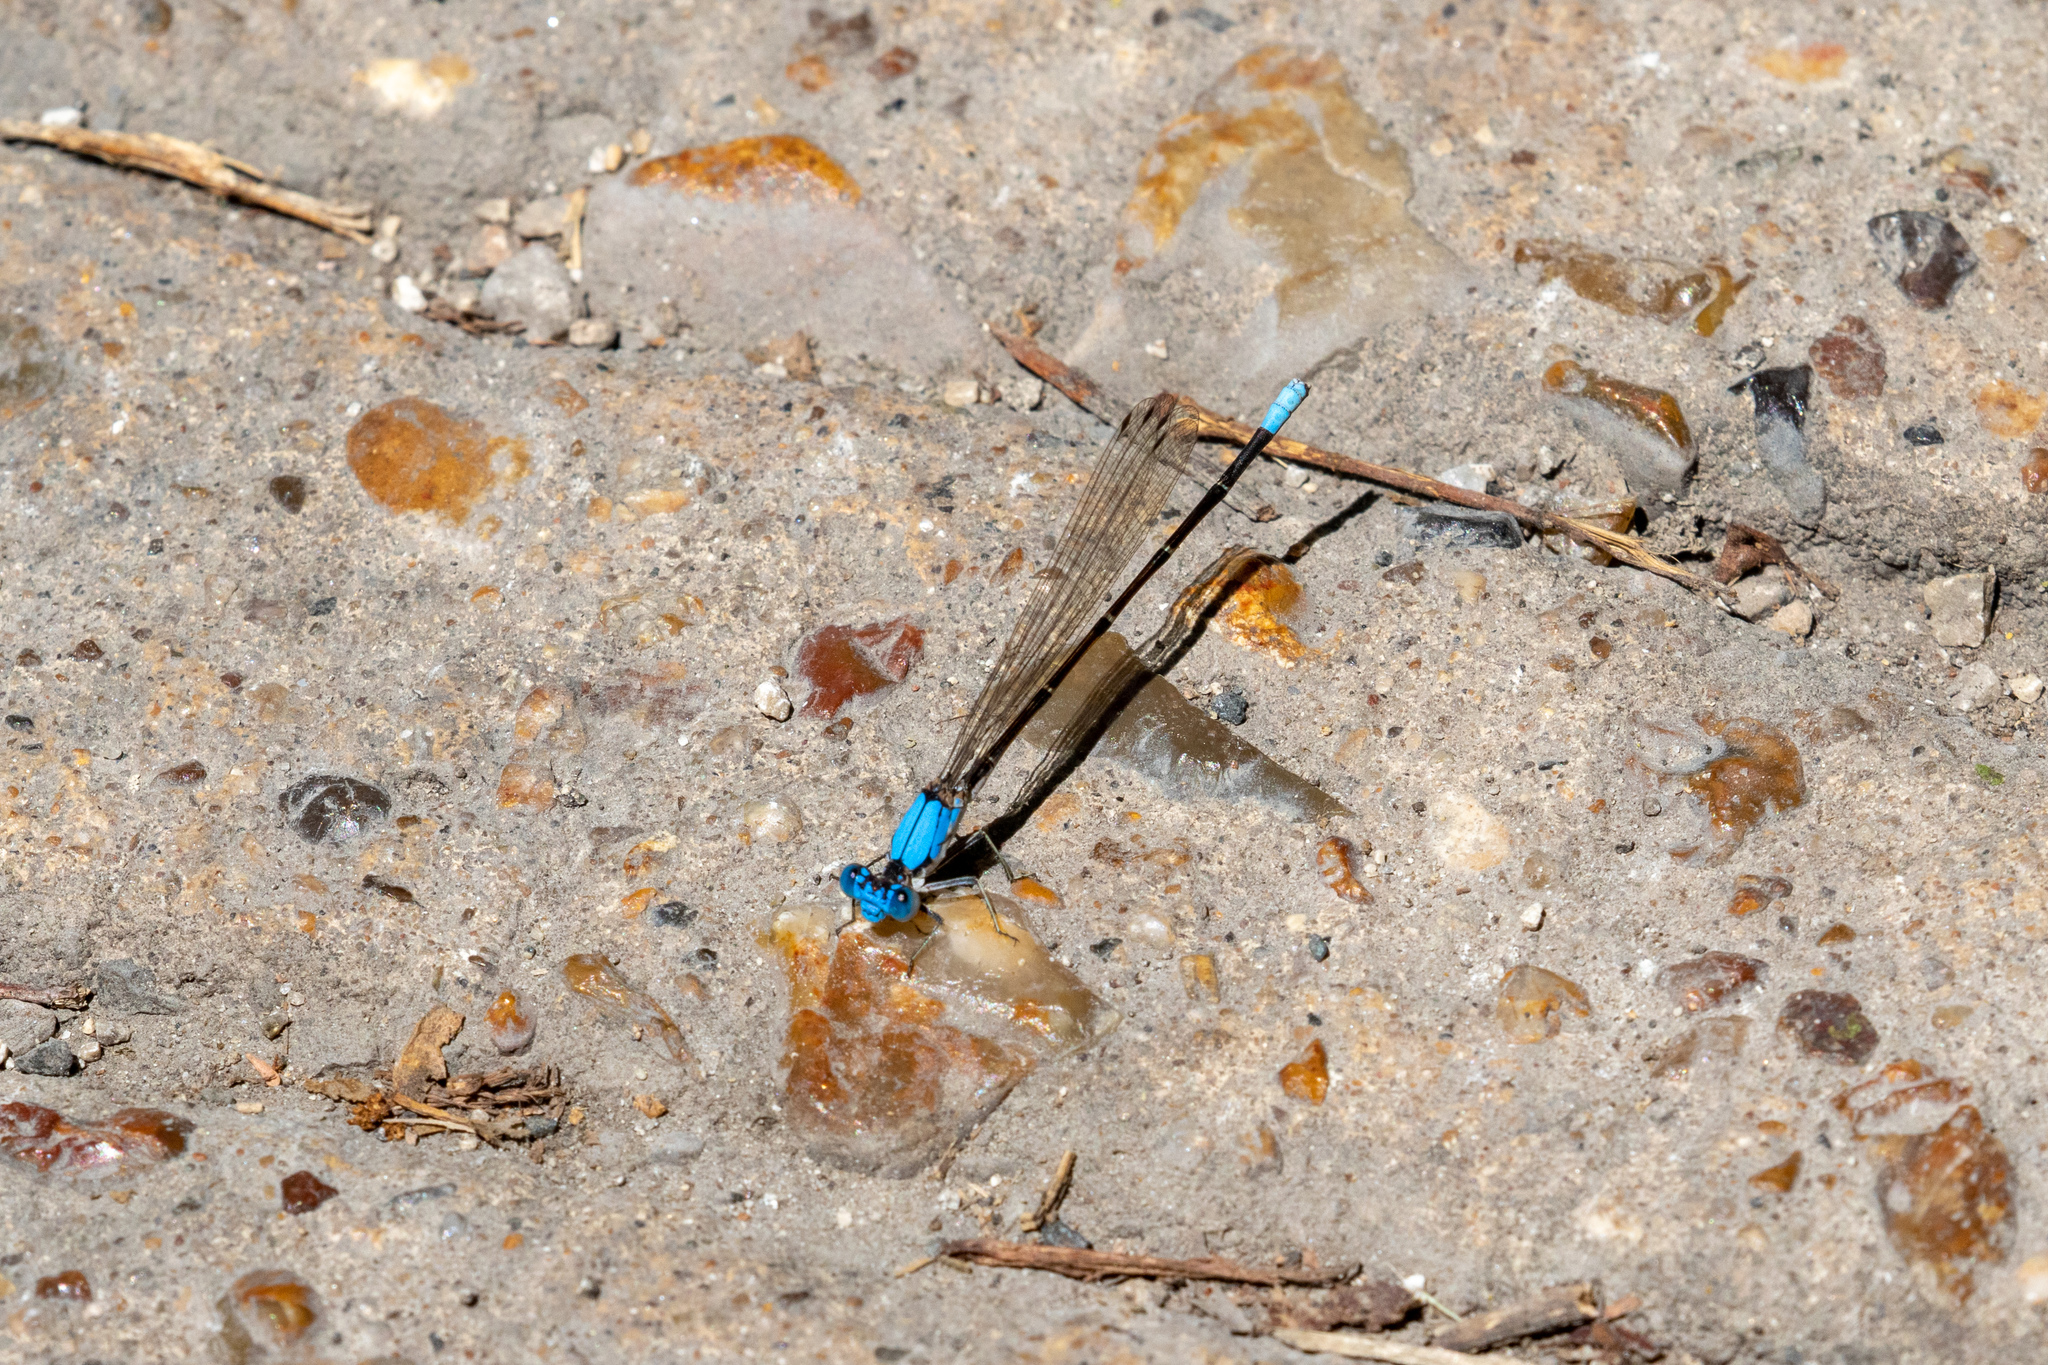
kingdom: Animalia
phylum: Arthropoda
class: Insecta
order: Odonata
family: Coenagrionidae
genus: Argia
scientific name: Argia apicalis
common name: Blue-fronted dancer
